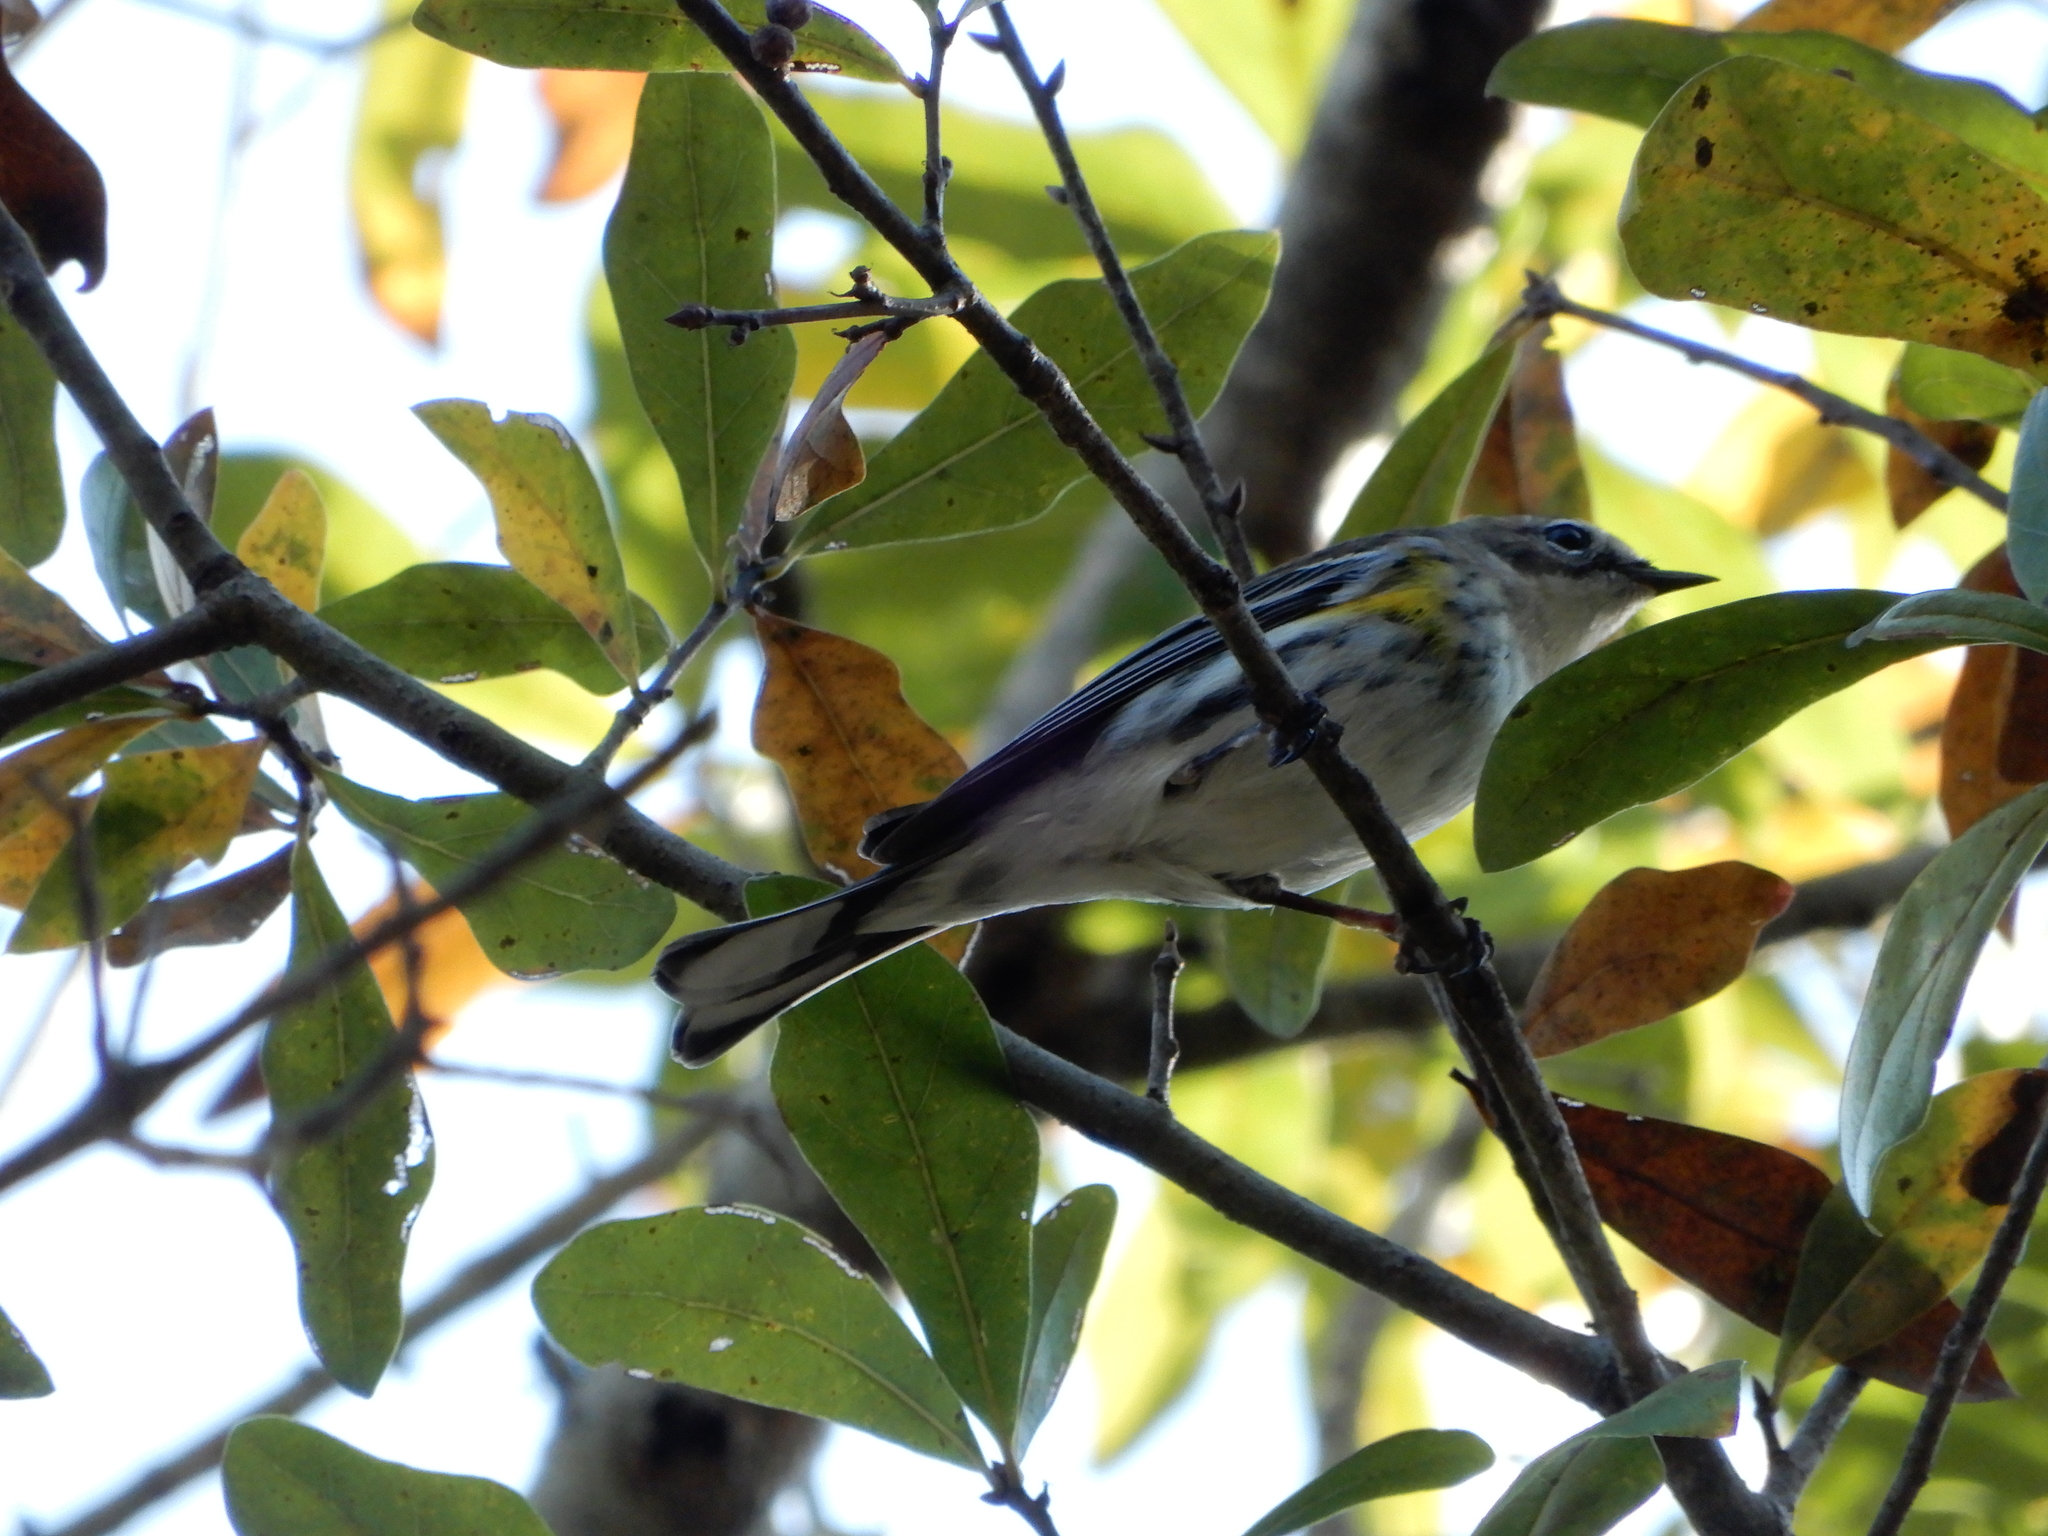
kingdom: Animalia
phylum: Chordata
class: Aves
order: Passeriformes
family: Parulidae
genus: Setophaga
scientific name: Setophaga coronata
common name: Myrtle warbler
